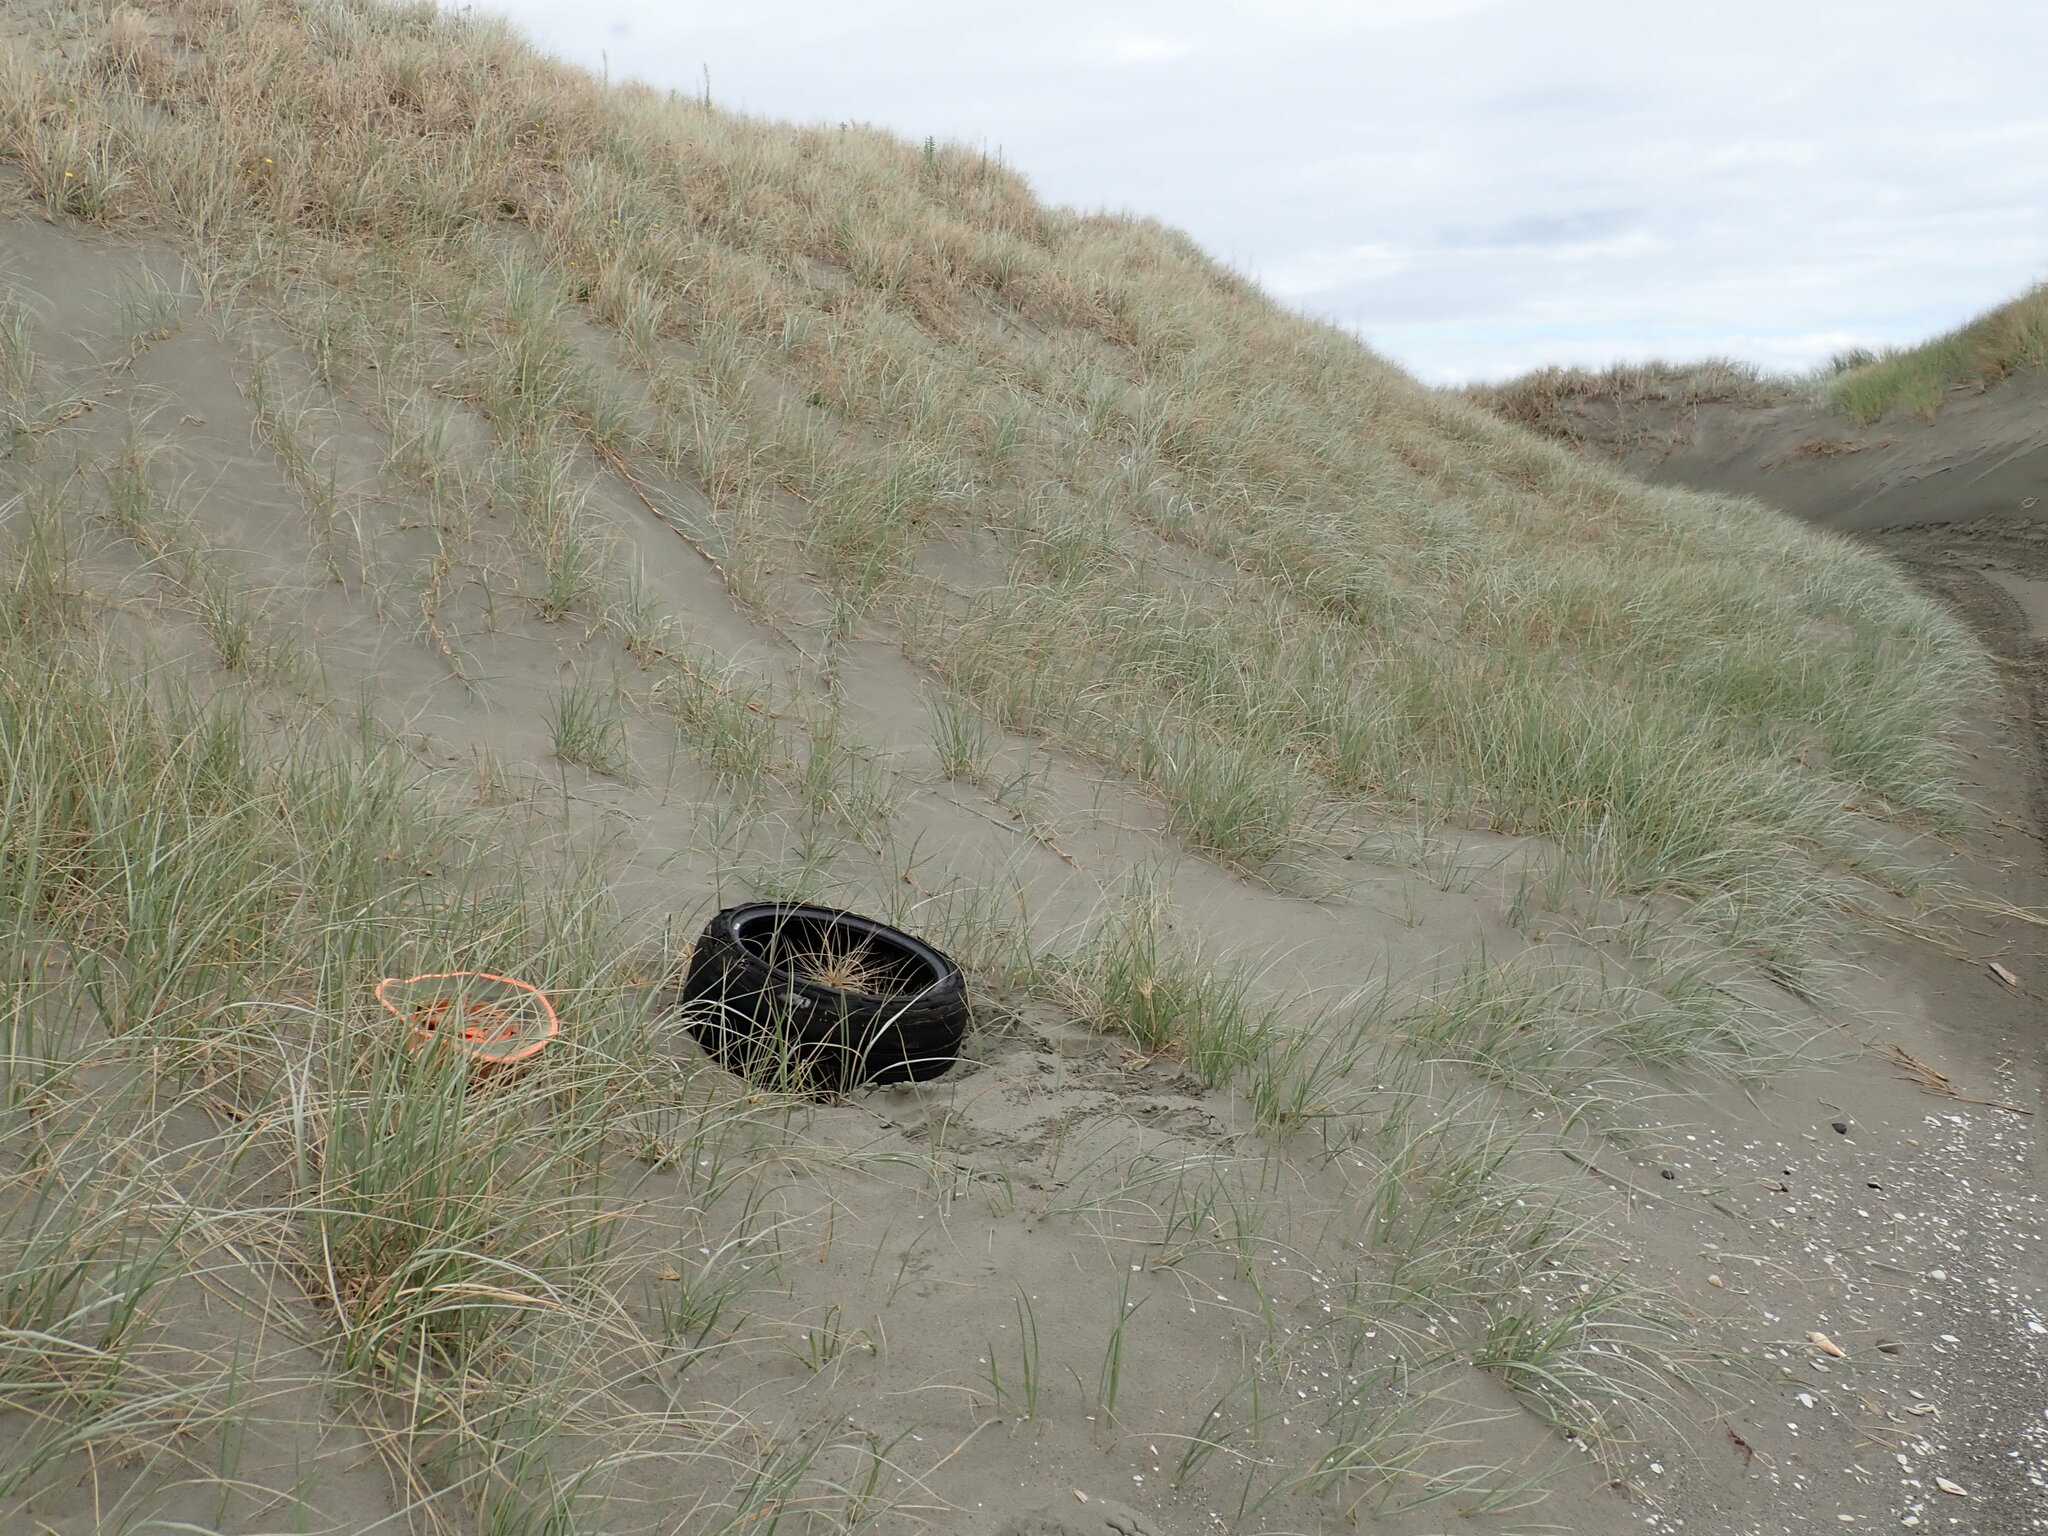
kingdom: Animalia
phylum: Arthropoda
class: Arachnida
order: Araneae
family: Theridiidae
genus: Latrodectus
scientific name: Latrodectus katipo
